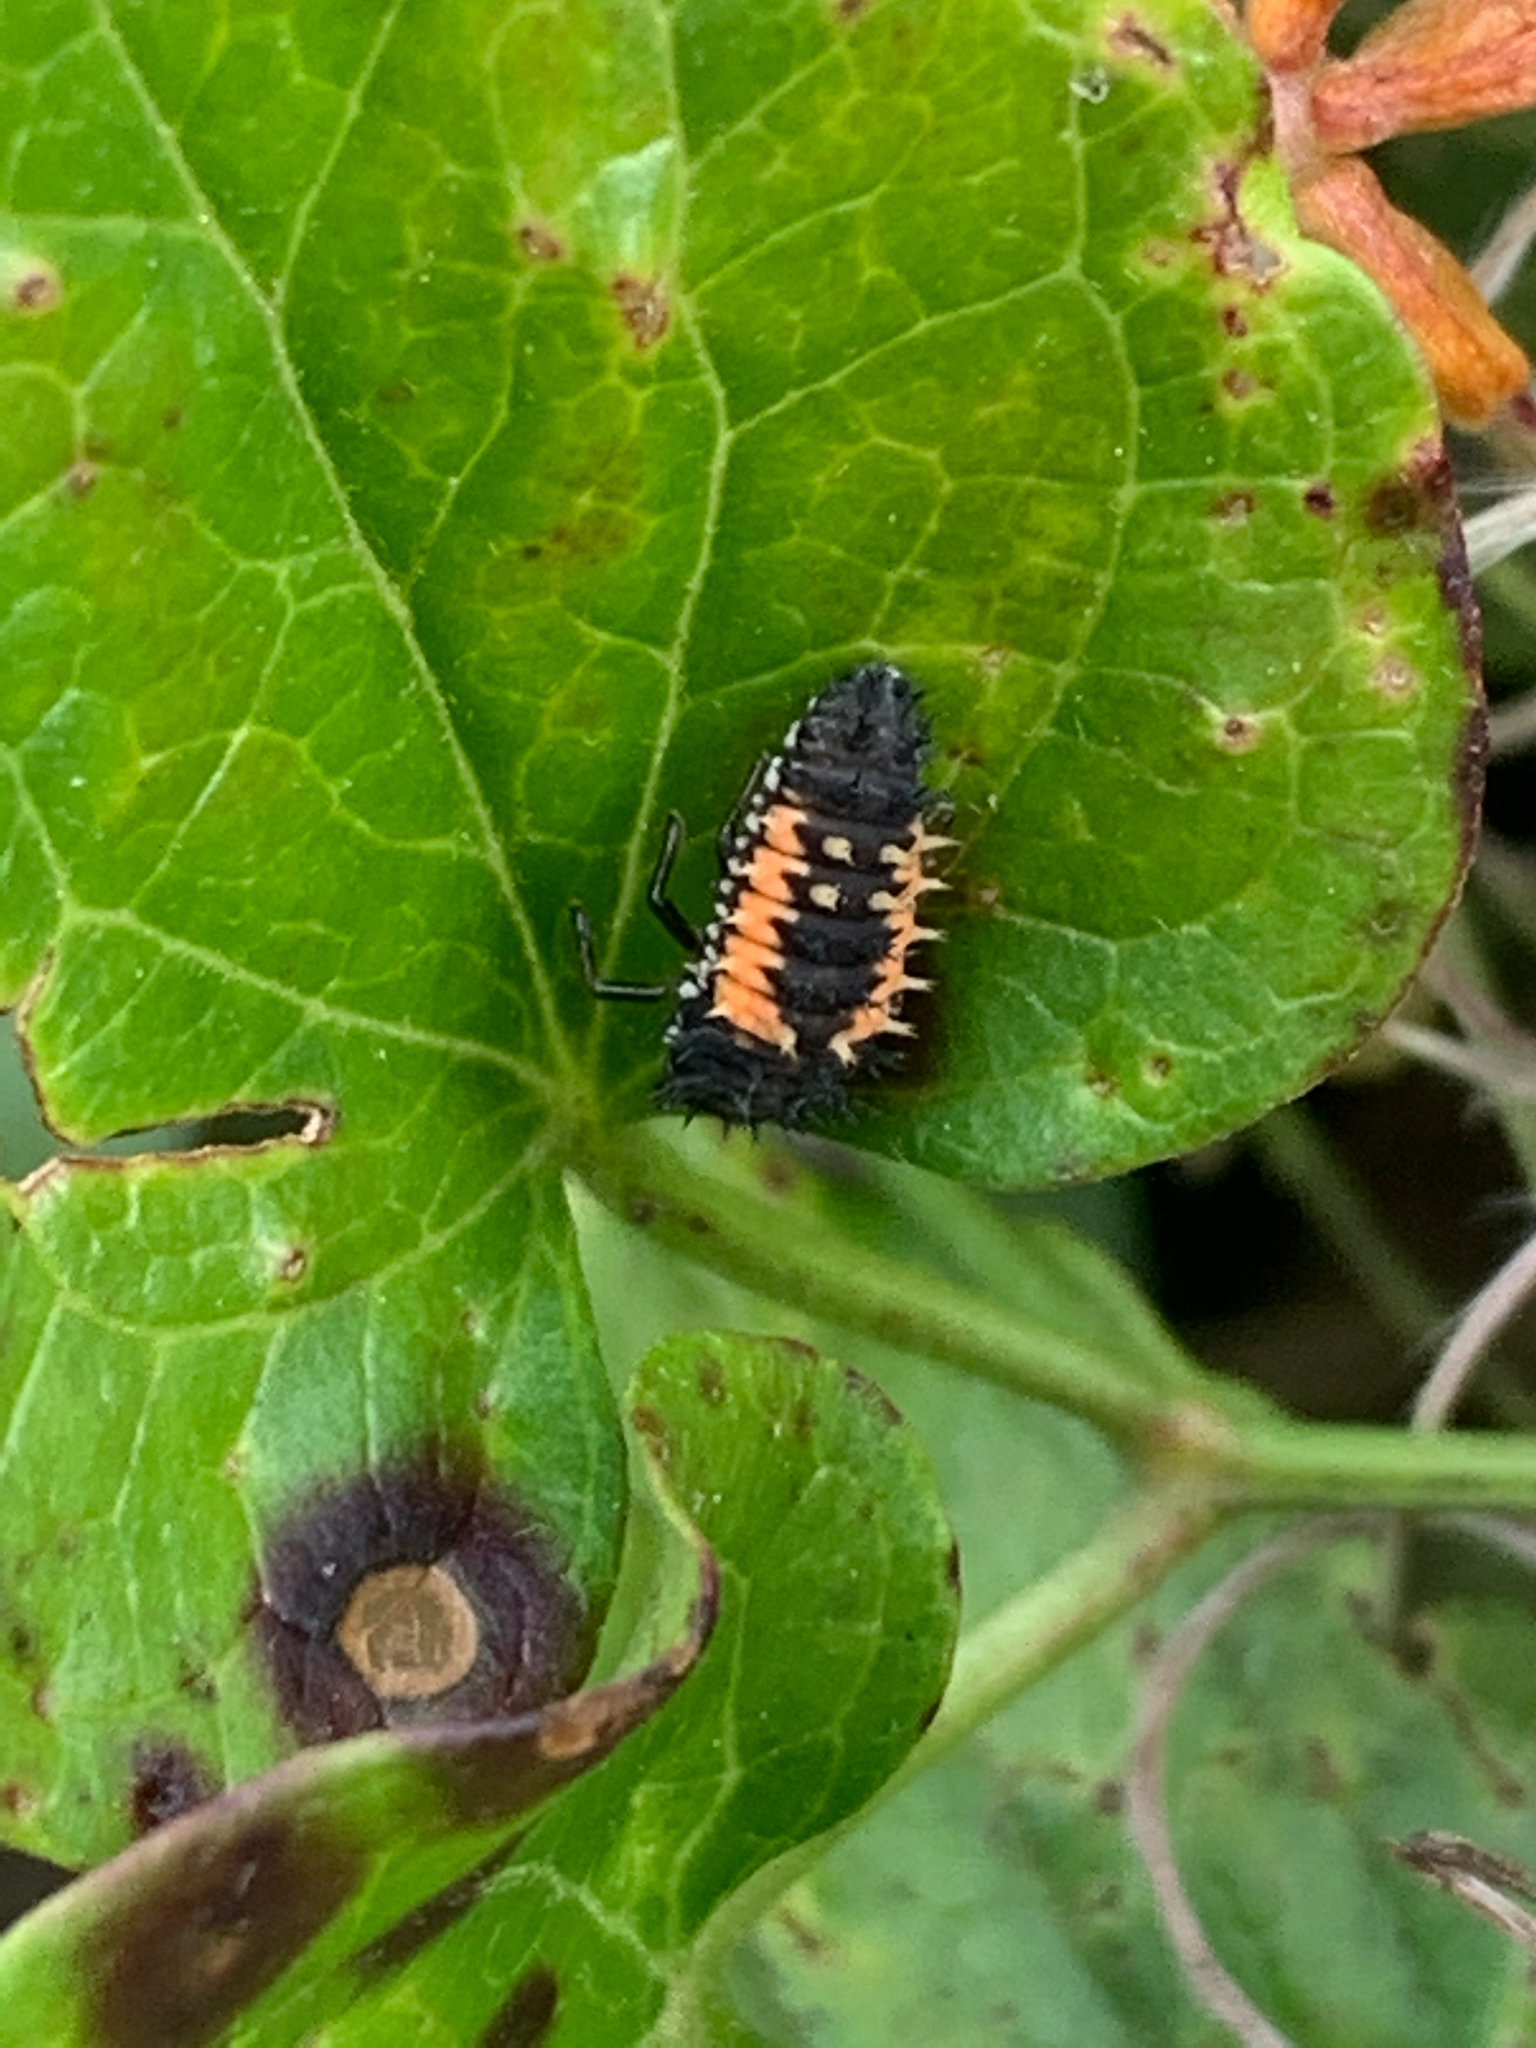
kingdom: Animalia
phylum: Arthropoda
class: Insecta
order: Coleoptera
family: Coccinellidae
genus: Harmonia
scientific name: Harmonia axyridis
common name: Harlequin ladybird
